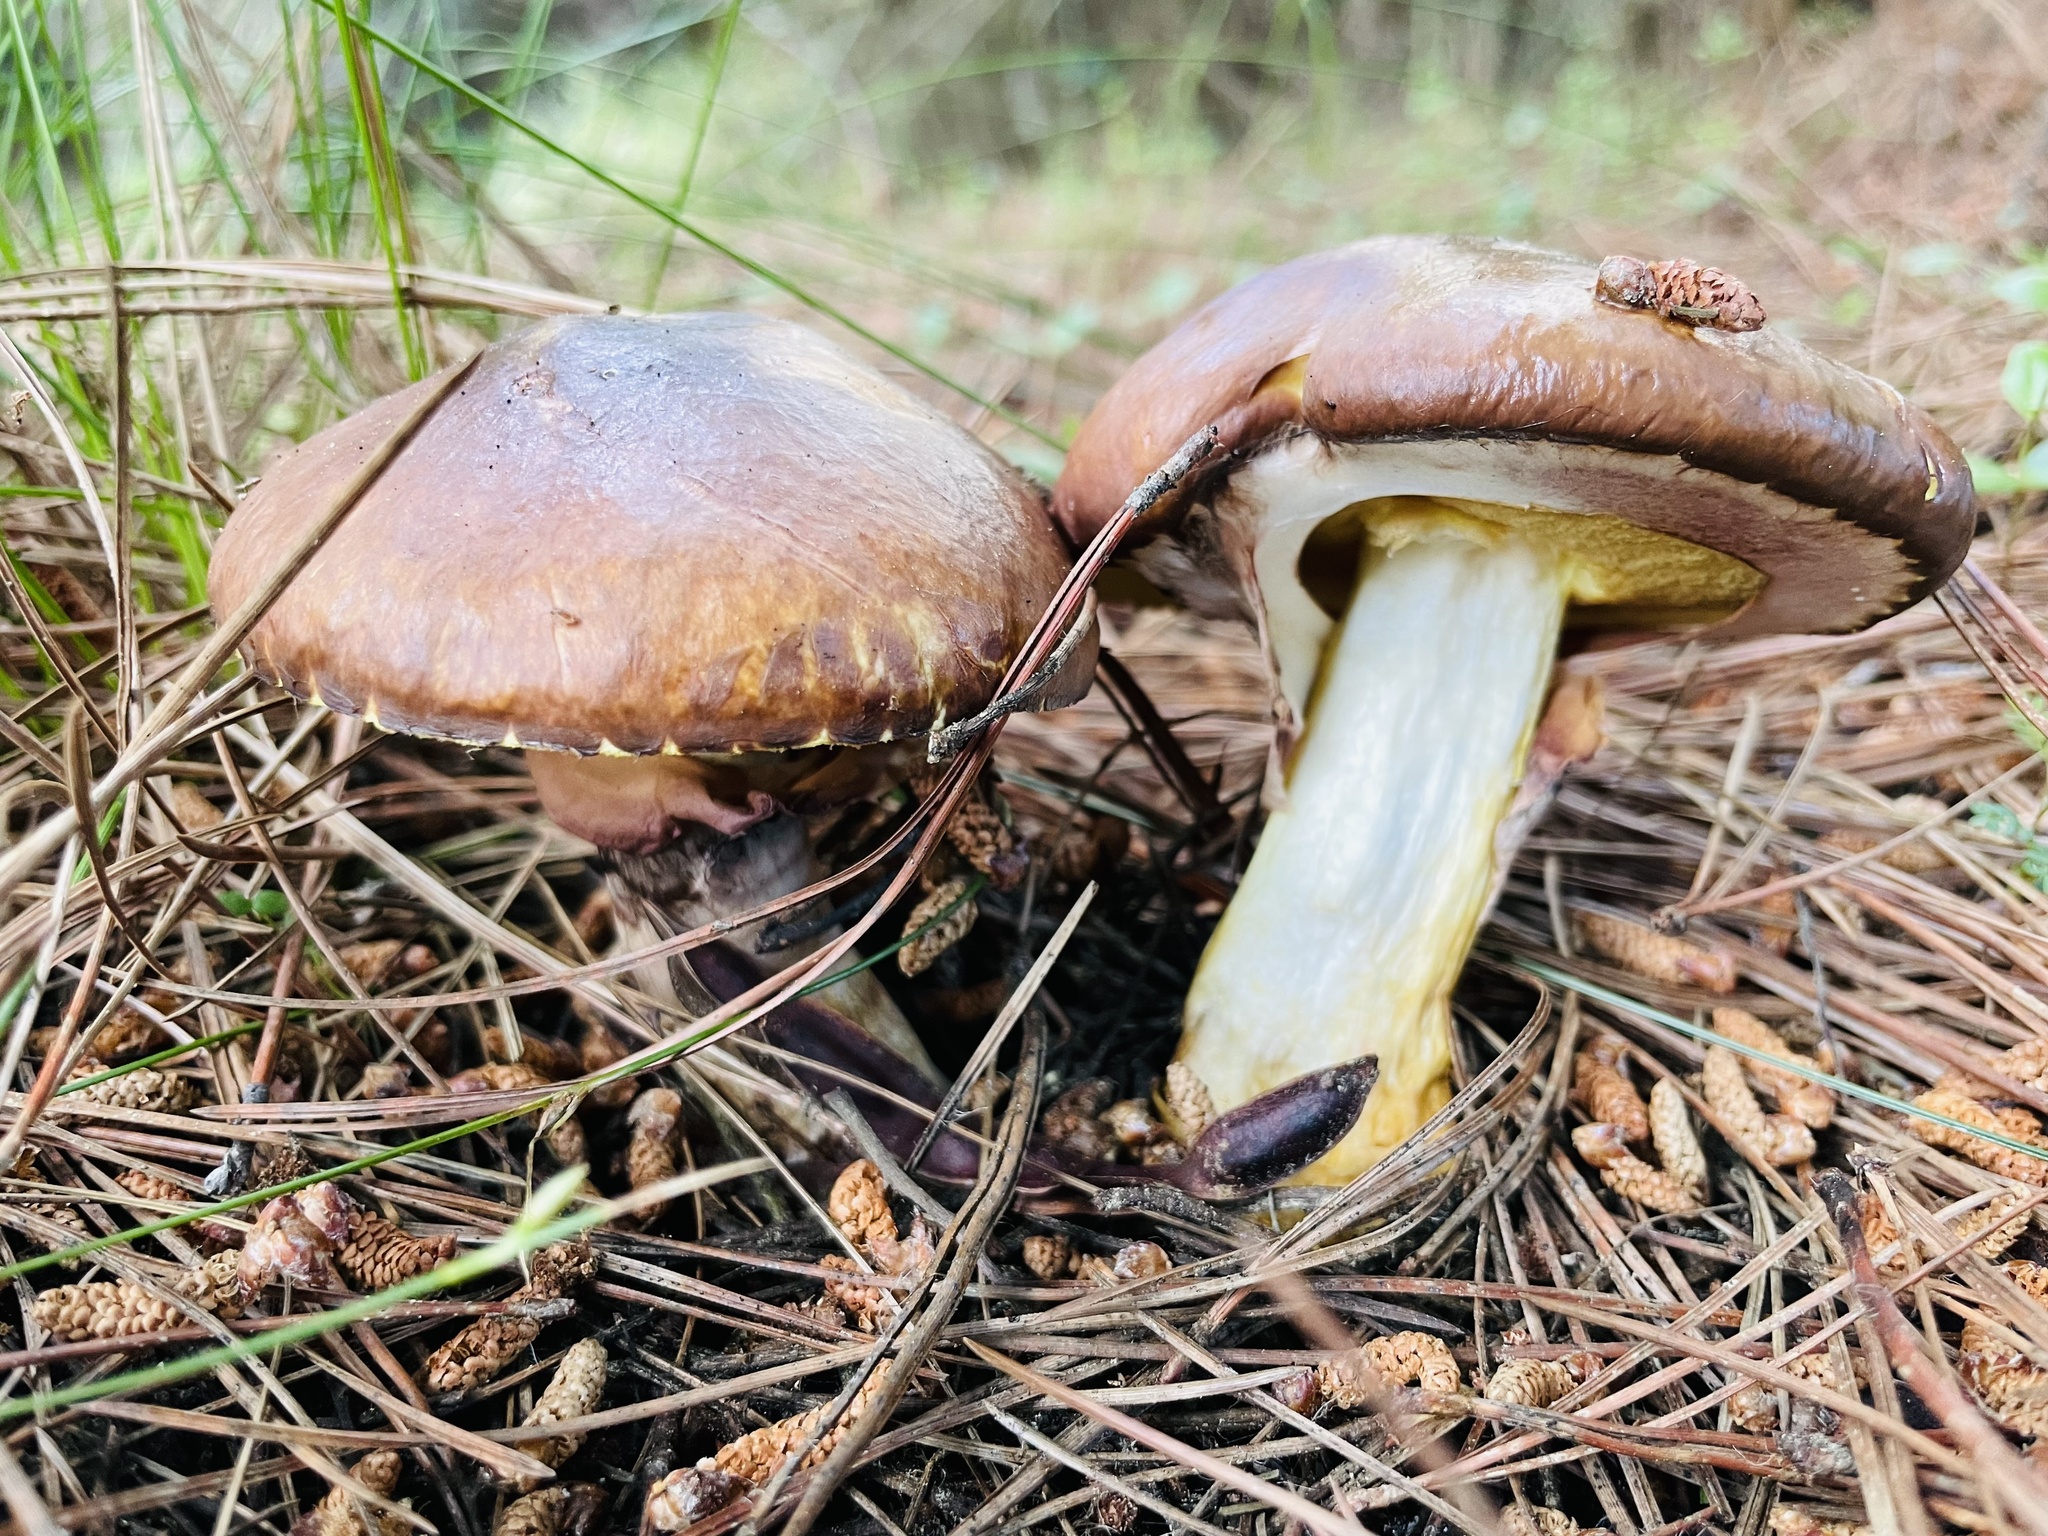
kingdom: Fungi
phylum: Basidiomycota
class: Agaricomycetes
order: Boletales
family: Suillaceae
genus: Suillus
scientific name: Suillus luteus
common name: Slippery jack
